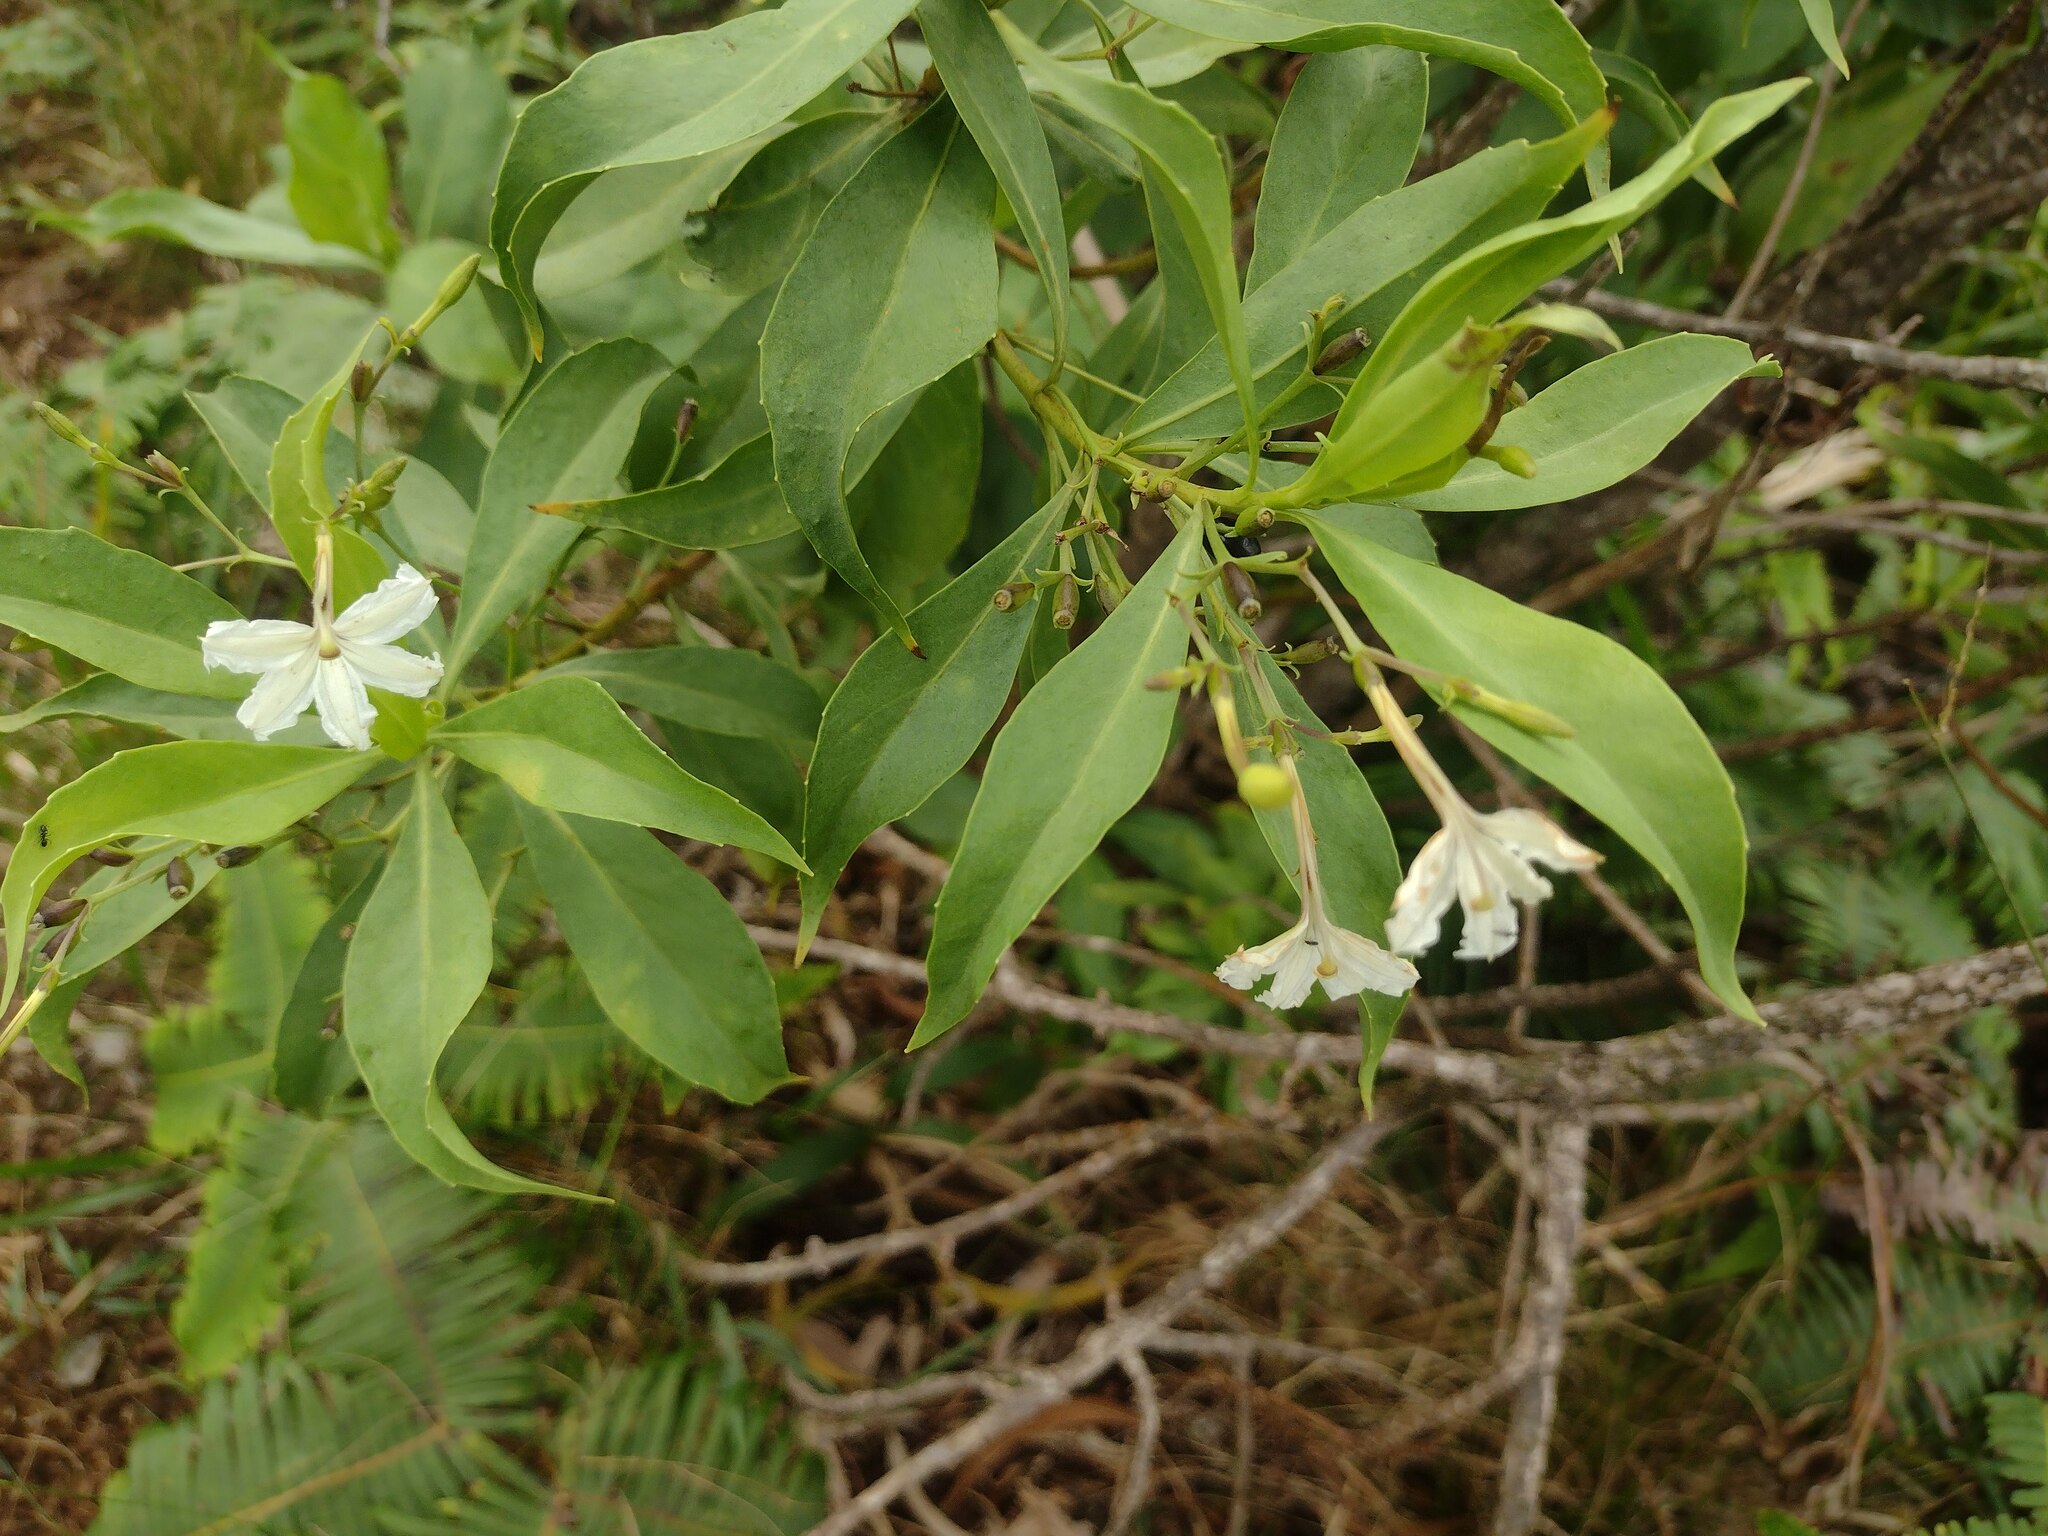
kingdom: Plantae
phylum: Tracheophyta
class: Magnoliopsida
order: Asterales
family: Goodeniaceae
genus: Scaevola
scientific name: Scaevola gaudichaudiana
